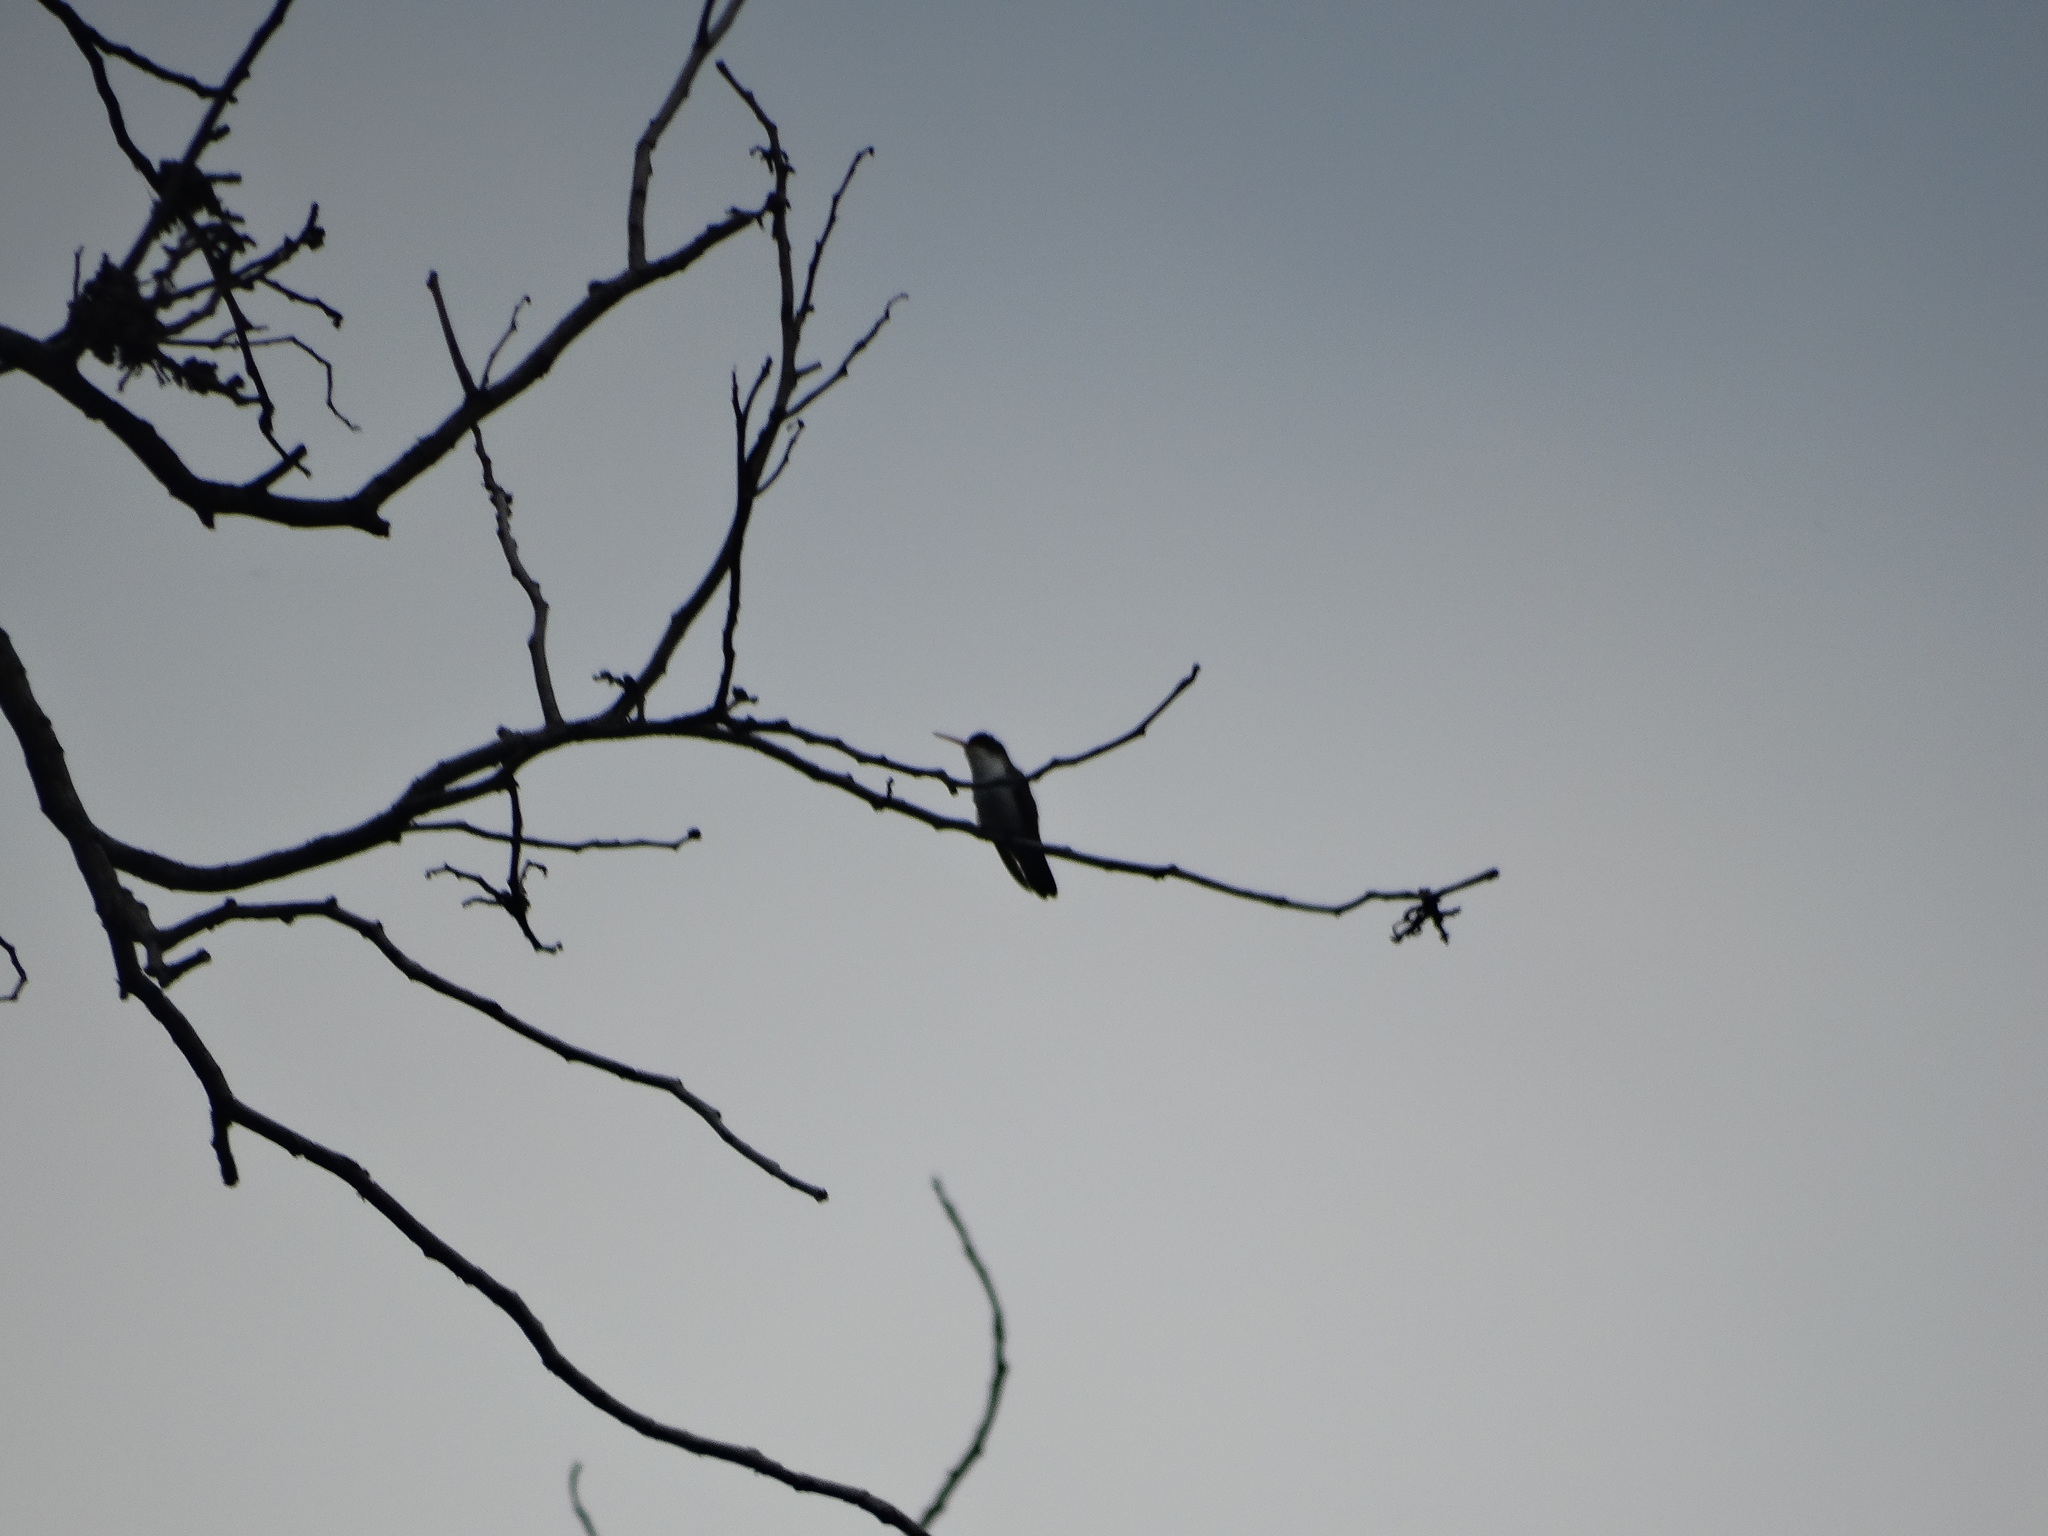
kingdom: Animalia
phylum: Chordata
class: Aves
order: Apodiformes
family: Trochilidae
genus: Leucolia
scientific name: Leucolia violiceps
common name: Violet-crowned hummingbird
